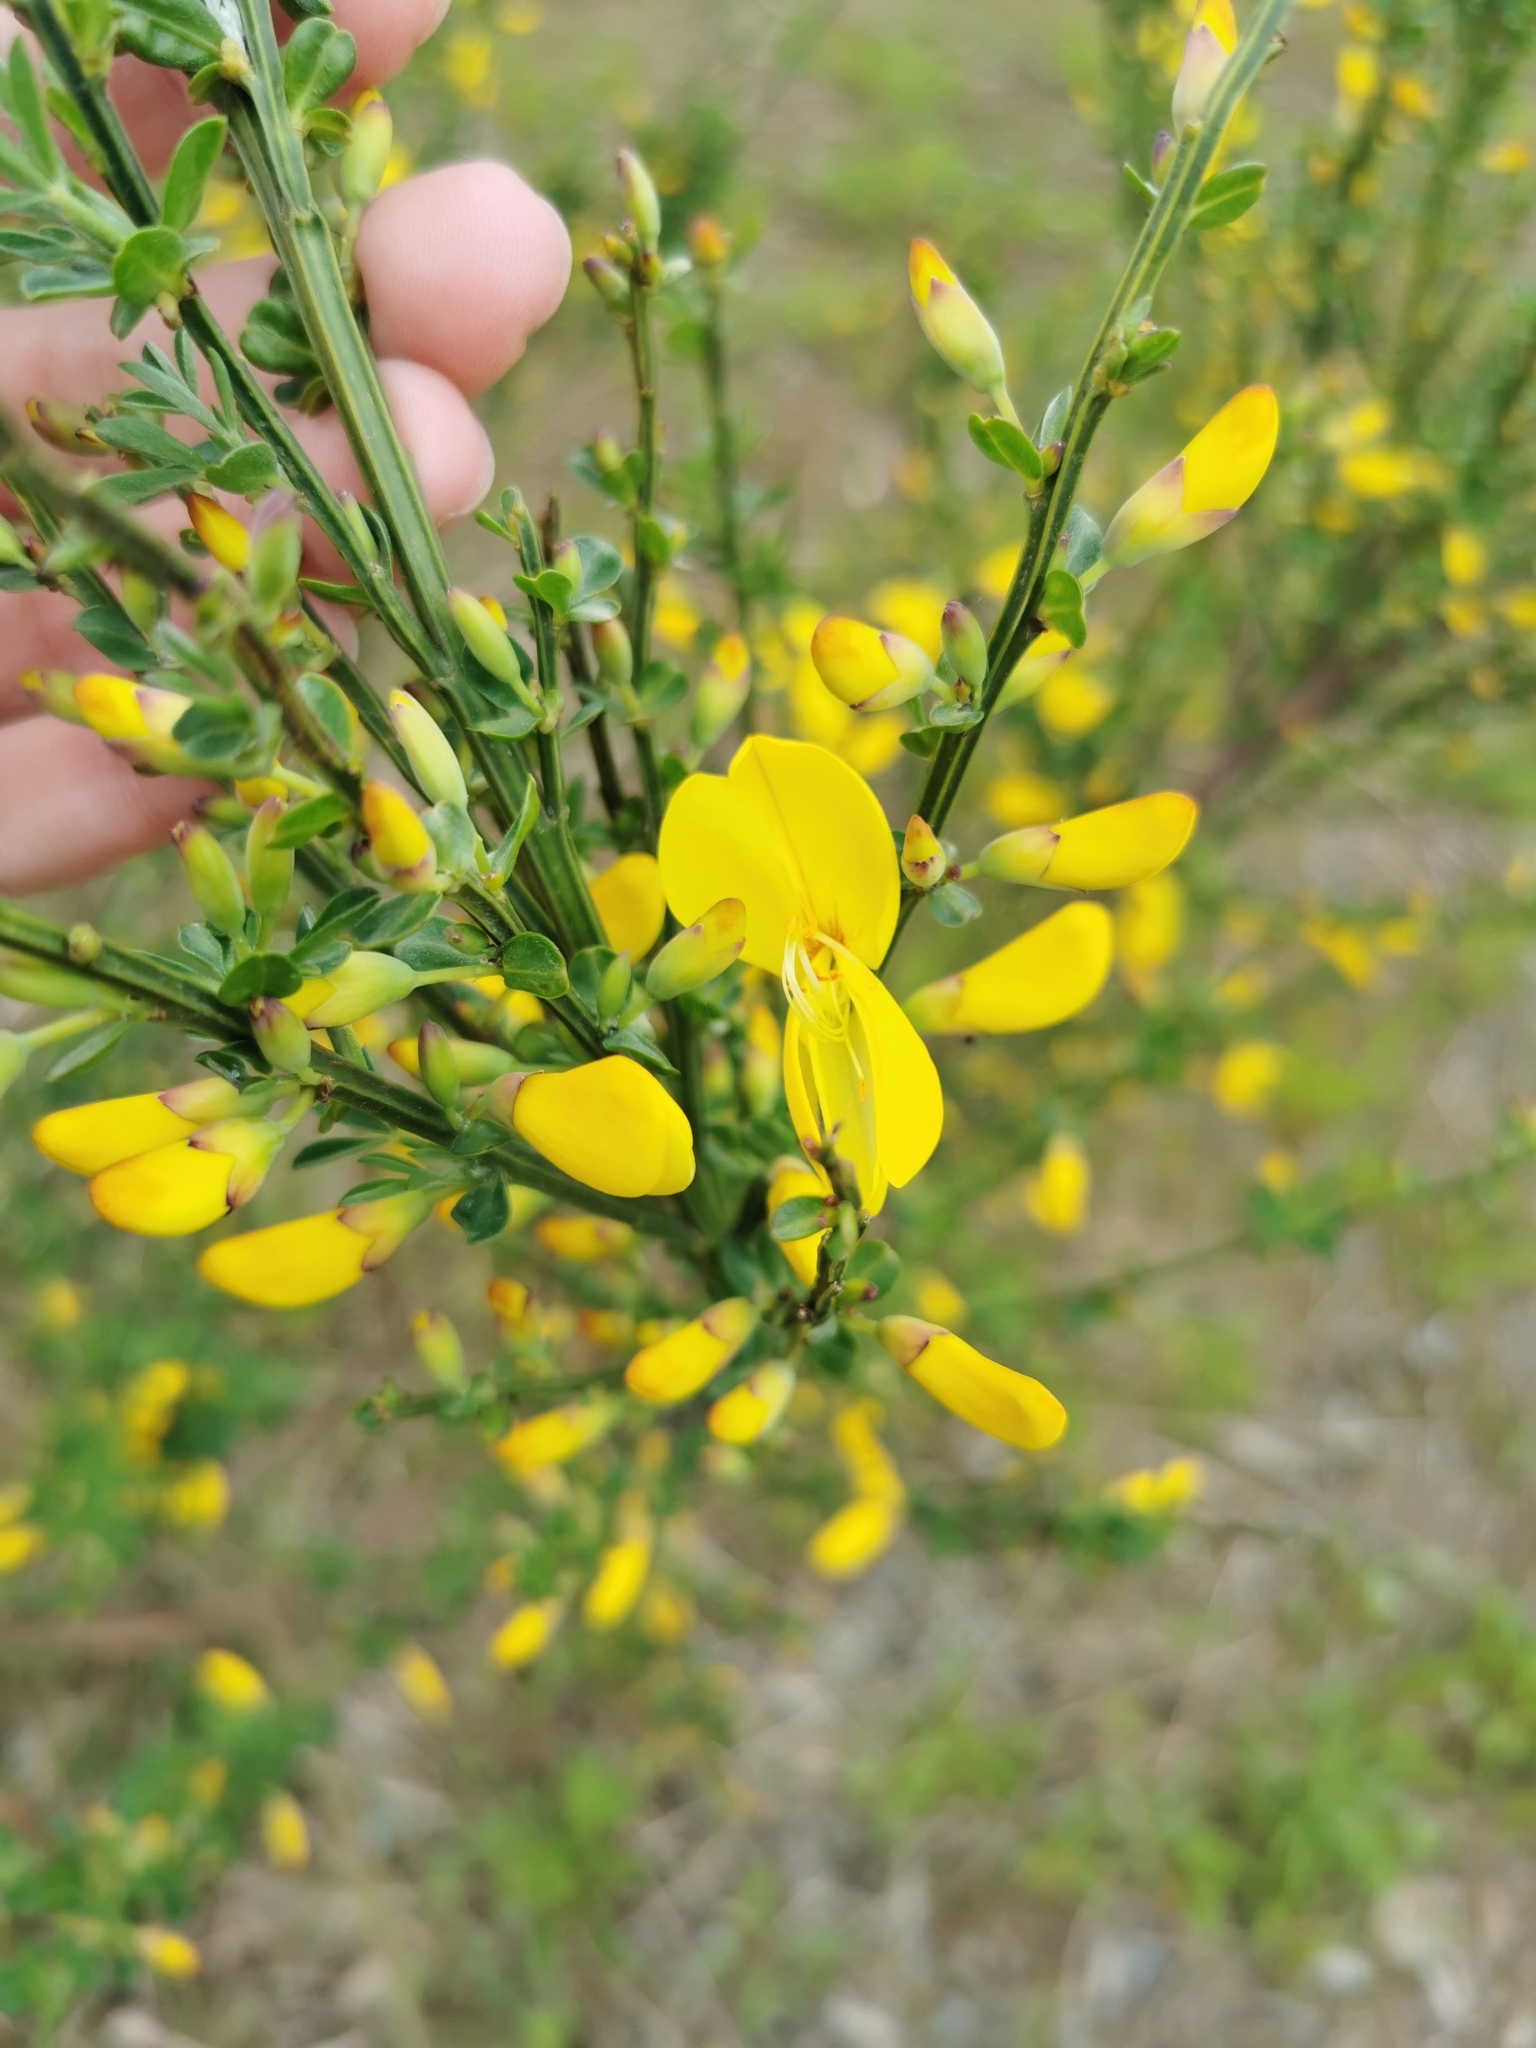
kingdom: Plantae
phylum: Tracheophyta
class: Magnoliopsida
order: Fabales
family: Fabaceae
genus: Cytisus
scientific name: Cytisus scoparius
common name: Scotch broom
